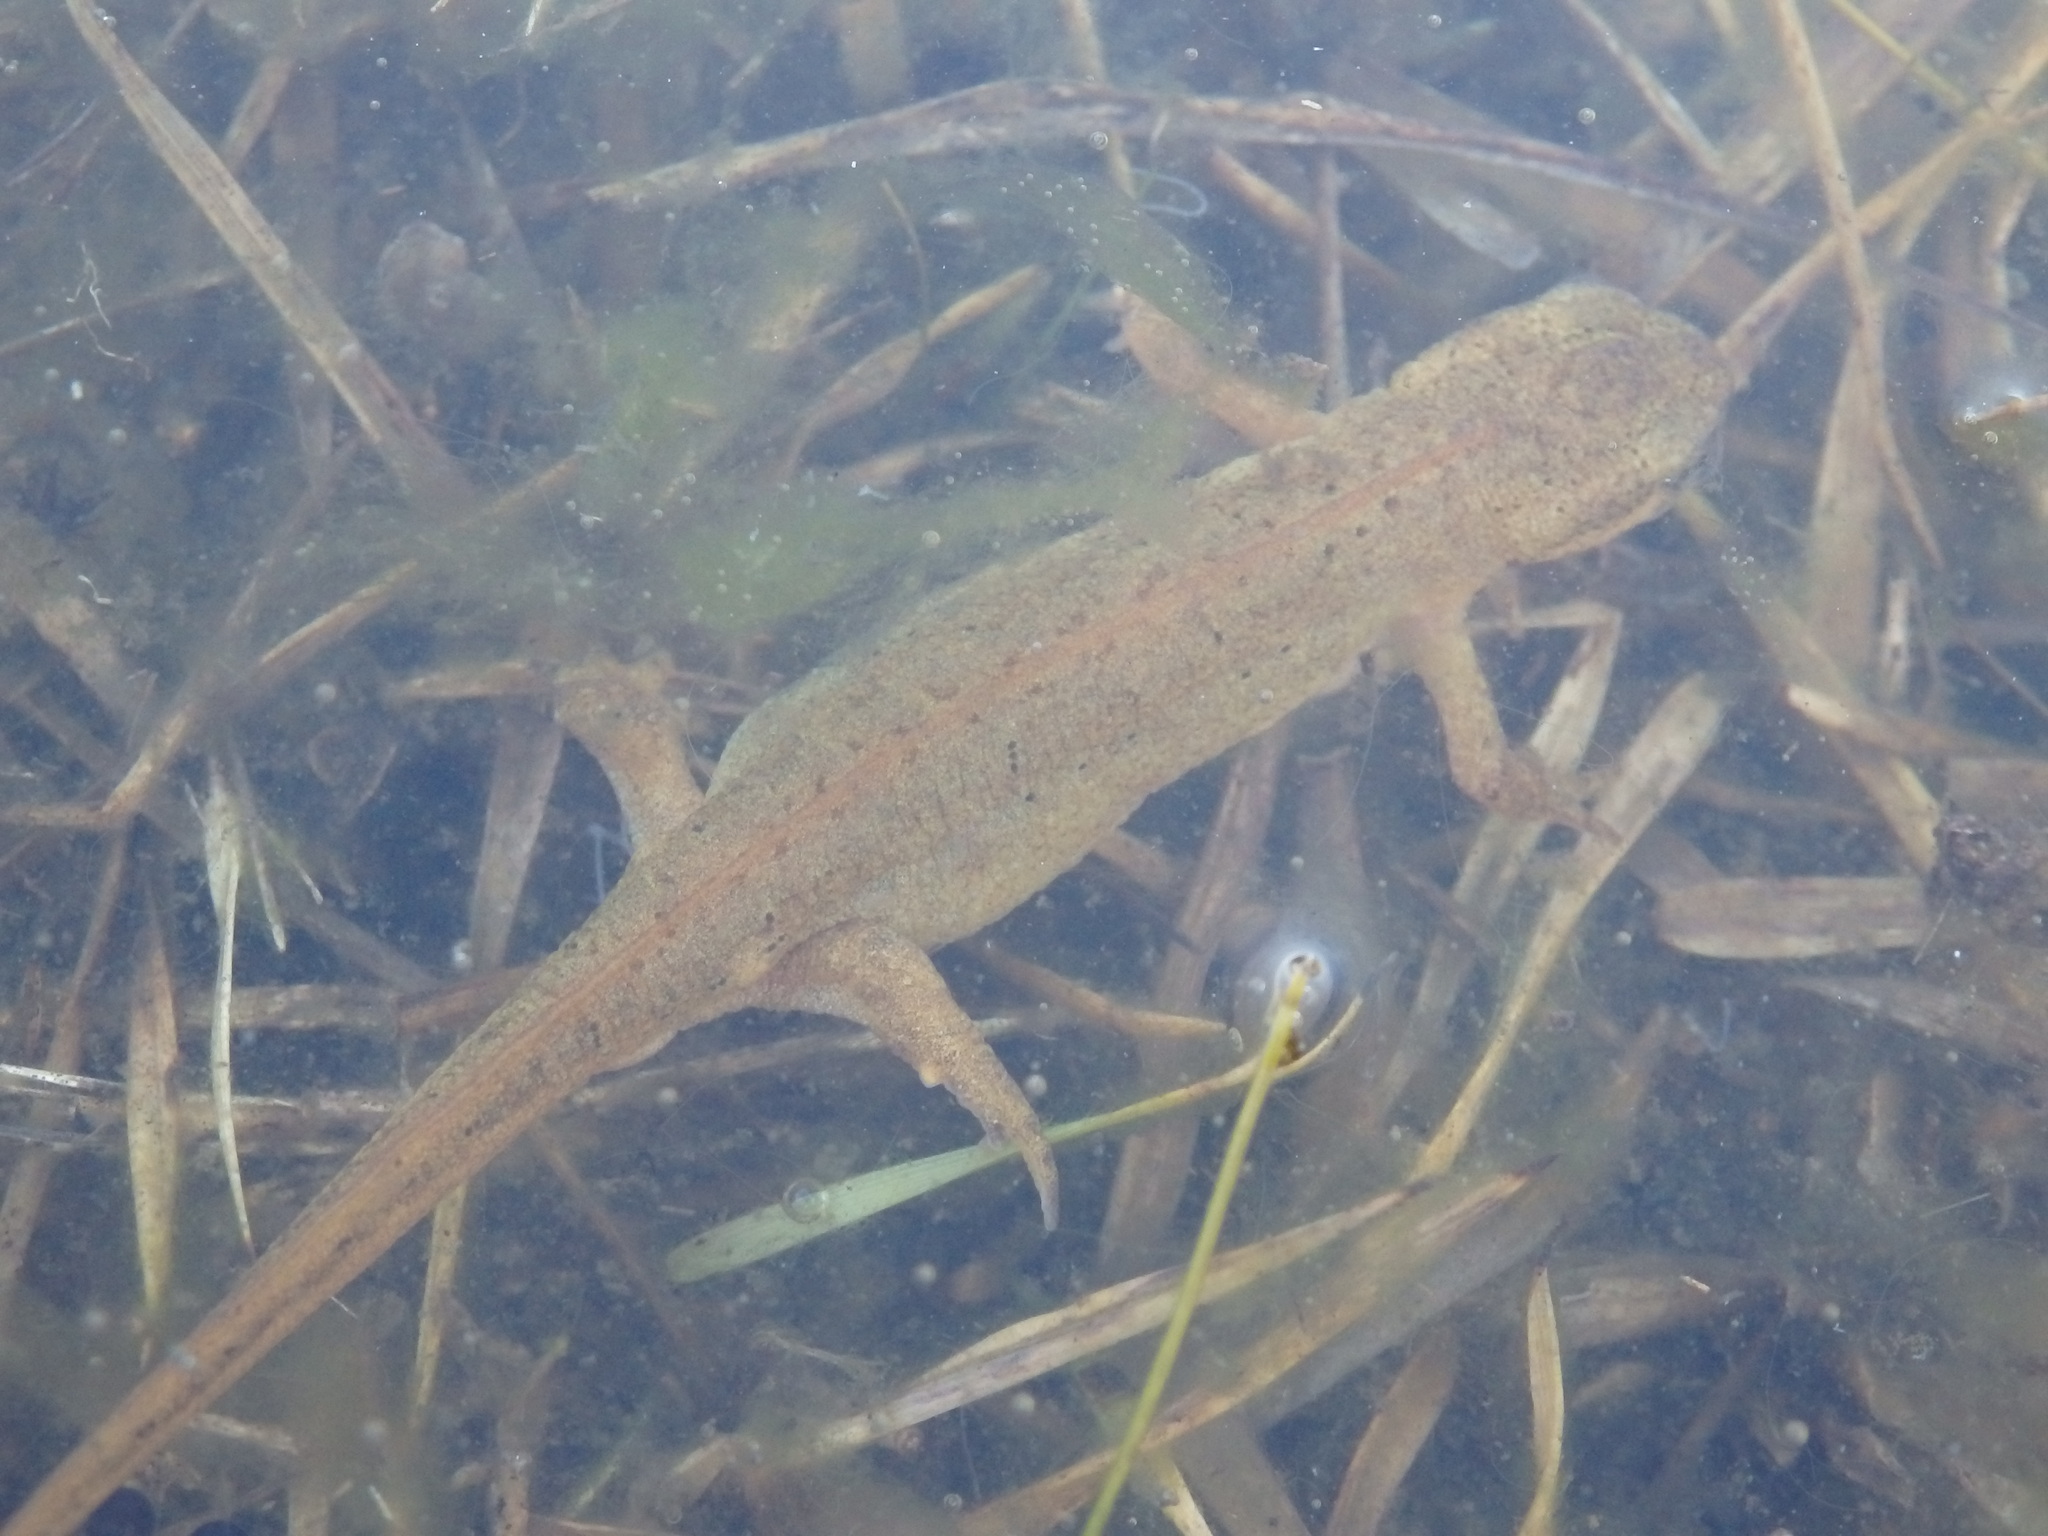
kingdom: Animalia
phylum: Chordata
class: Amphibia
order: Caudata
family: Salamandridae
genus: Lissotriton
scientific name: Lissotriton boscai
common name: Bosca's newt
